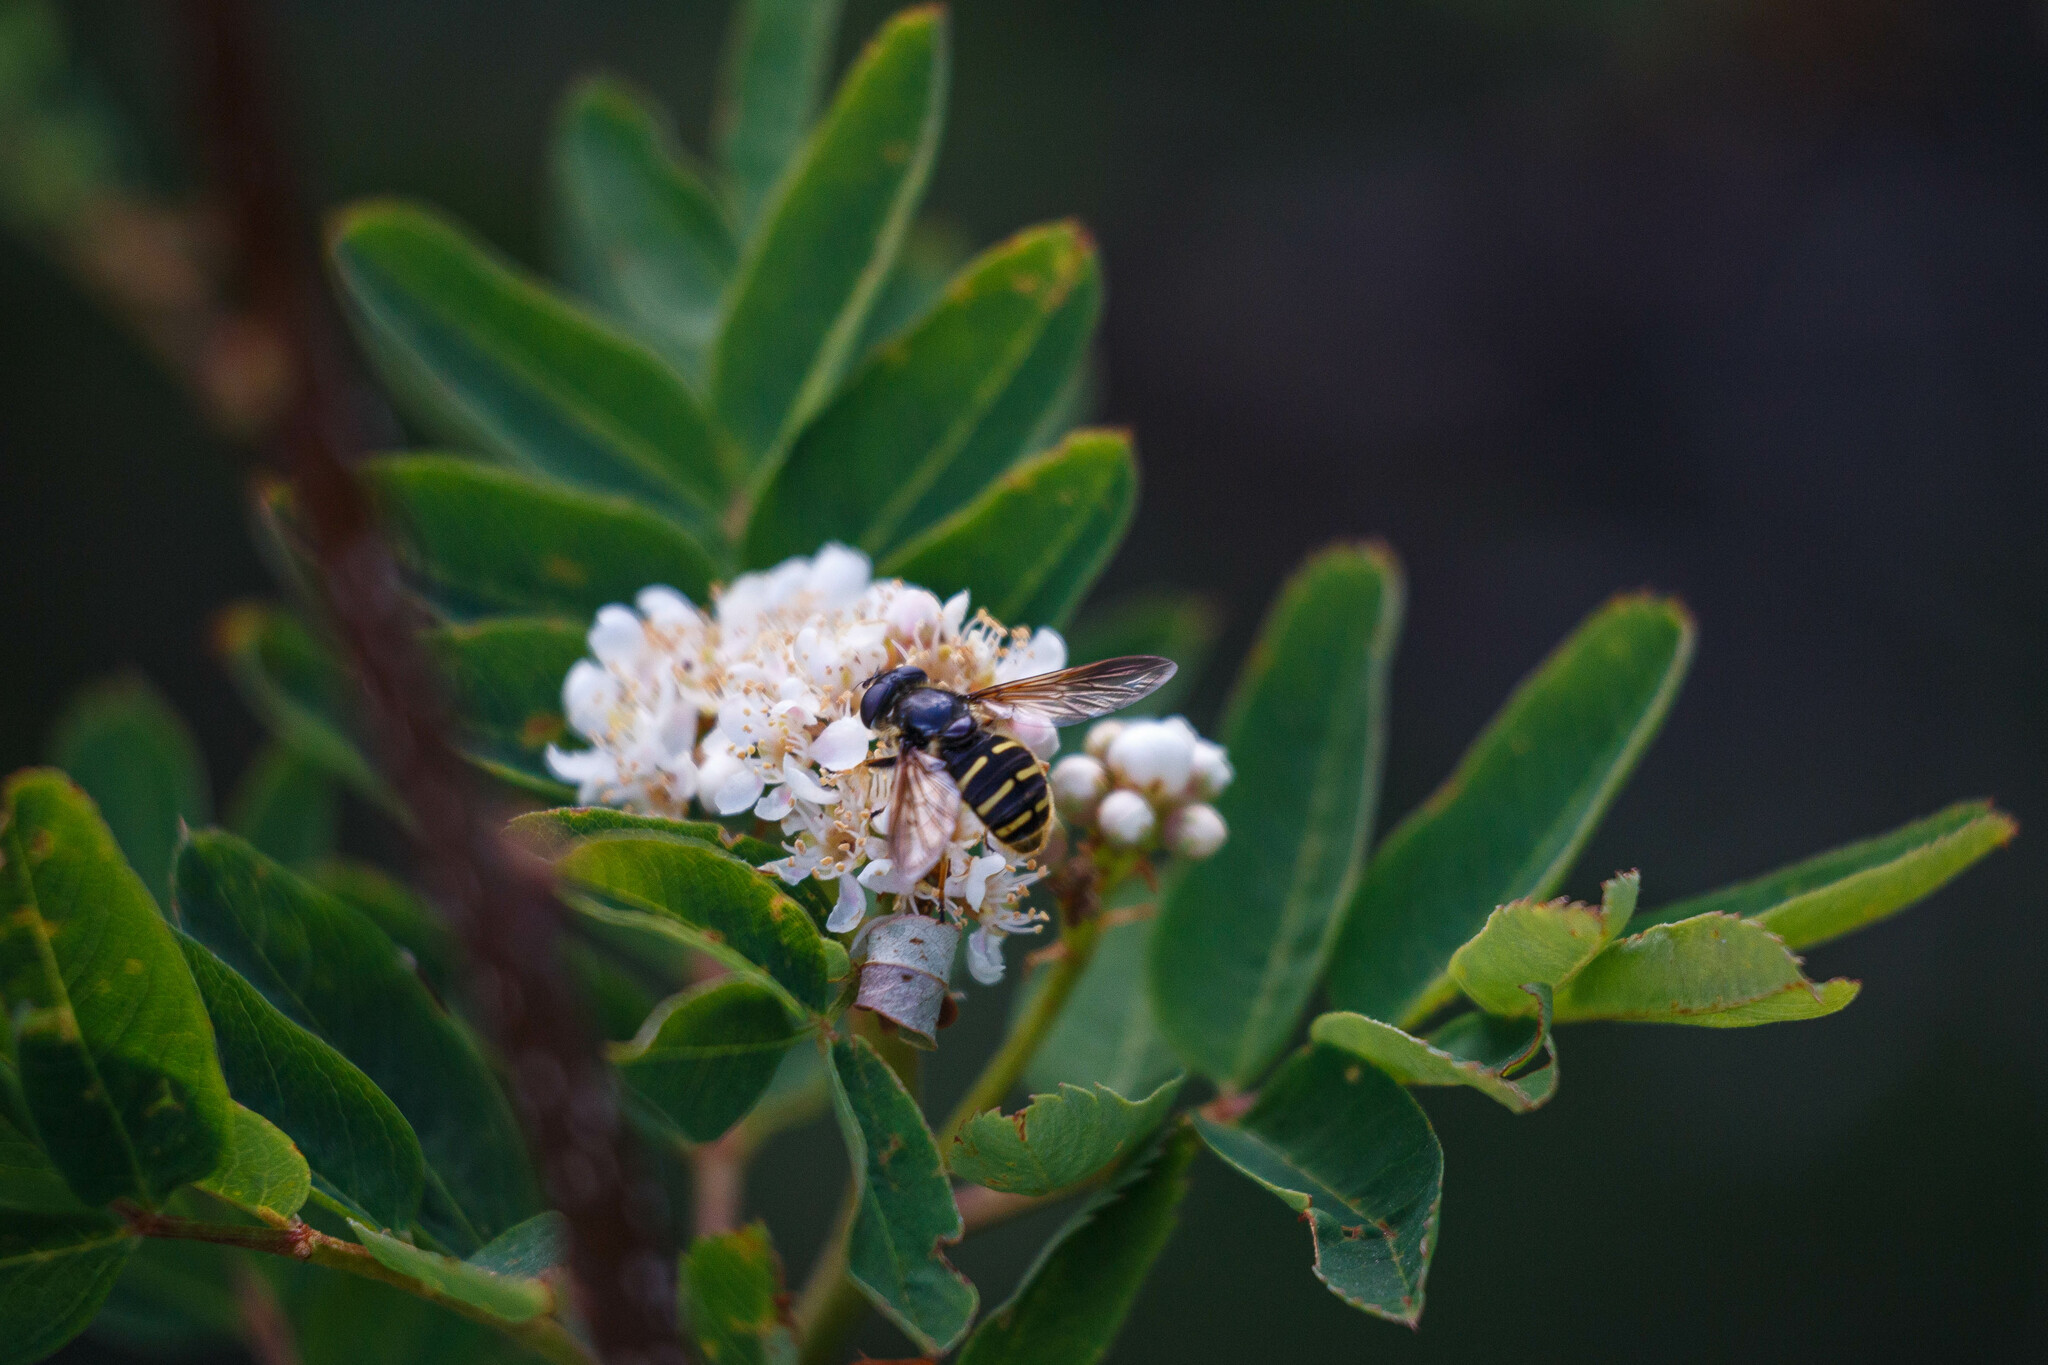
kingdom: Animalia
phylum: Arthropoda
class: Insecta
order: Diptera
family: Syrphidae
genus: Sericomyia
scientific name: Sericomyia chalcopyga
